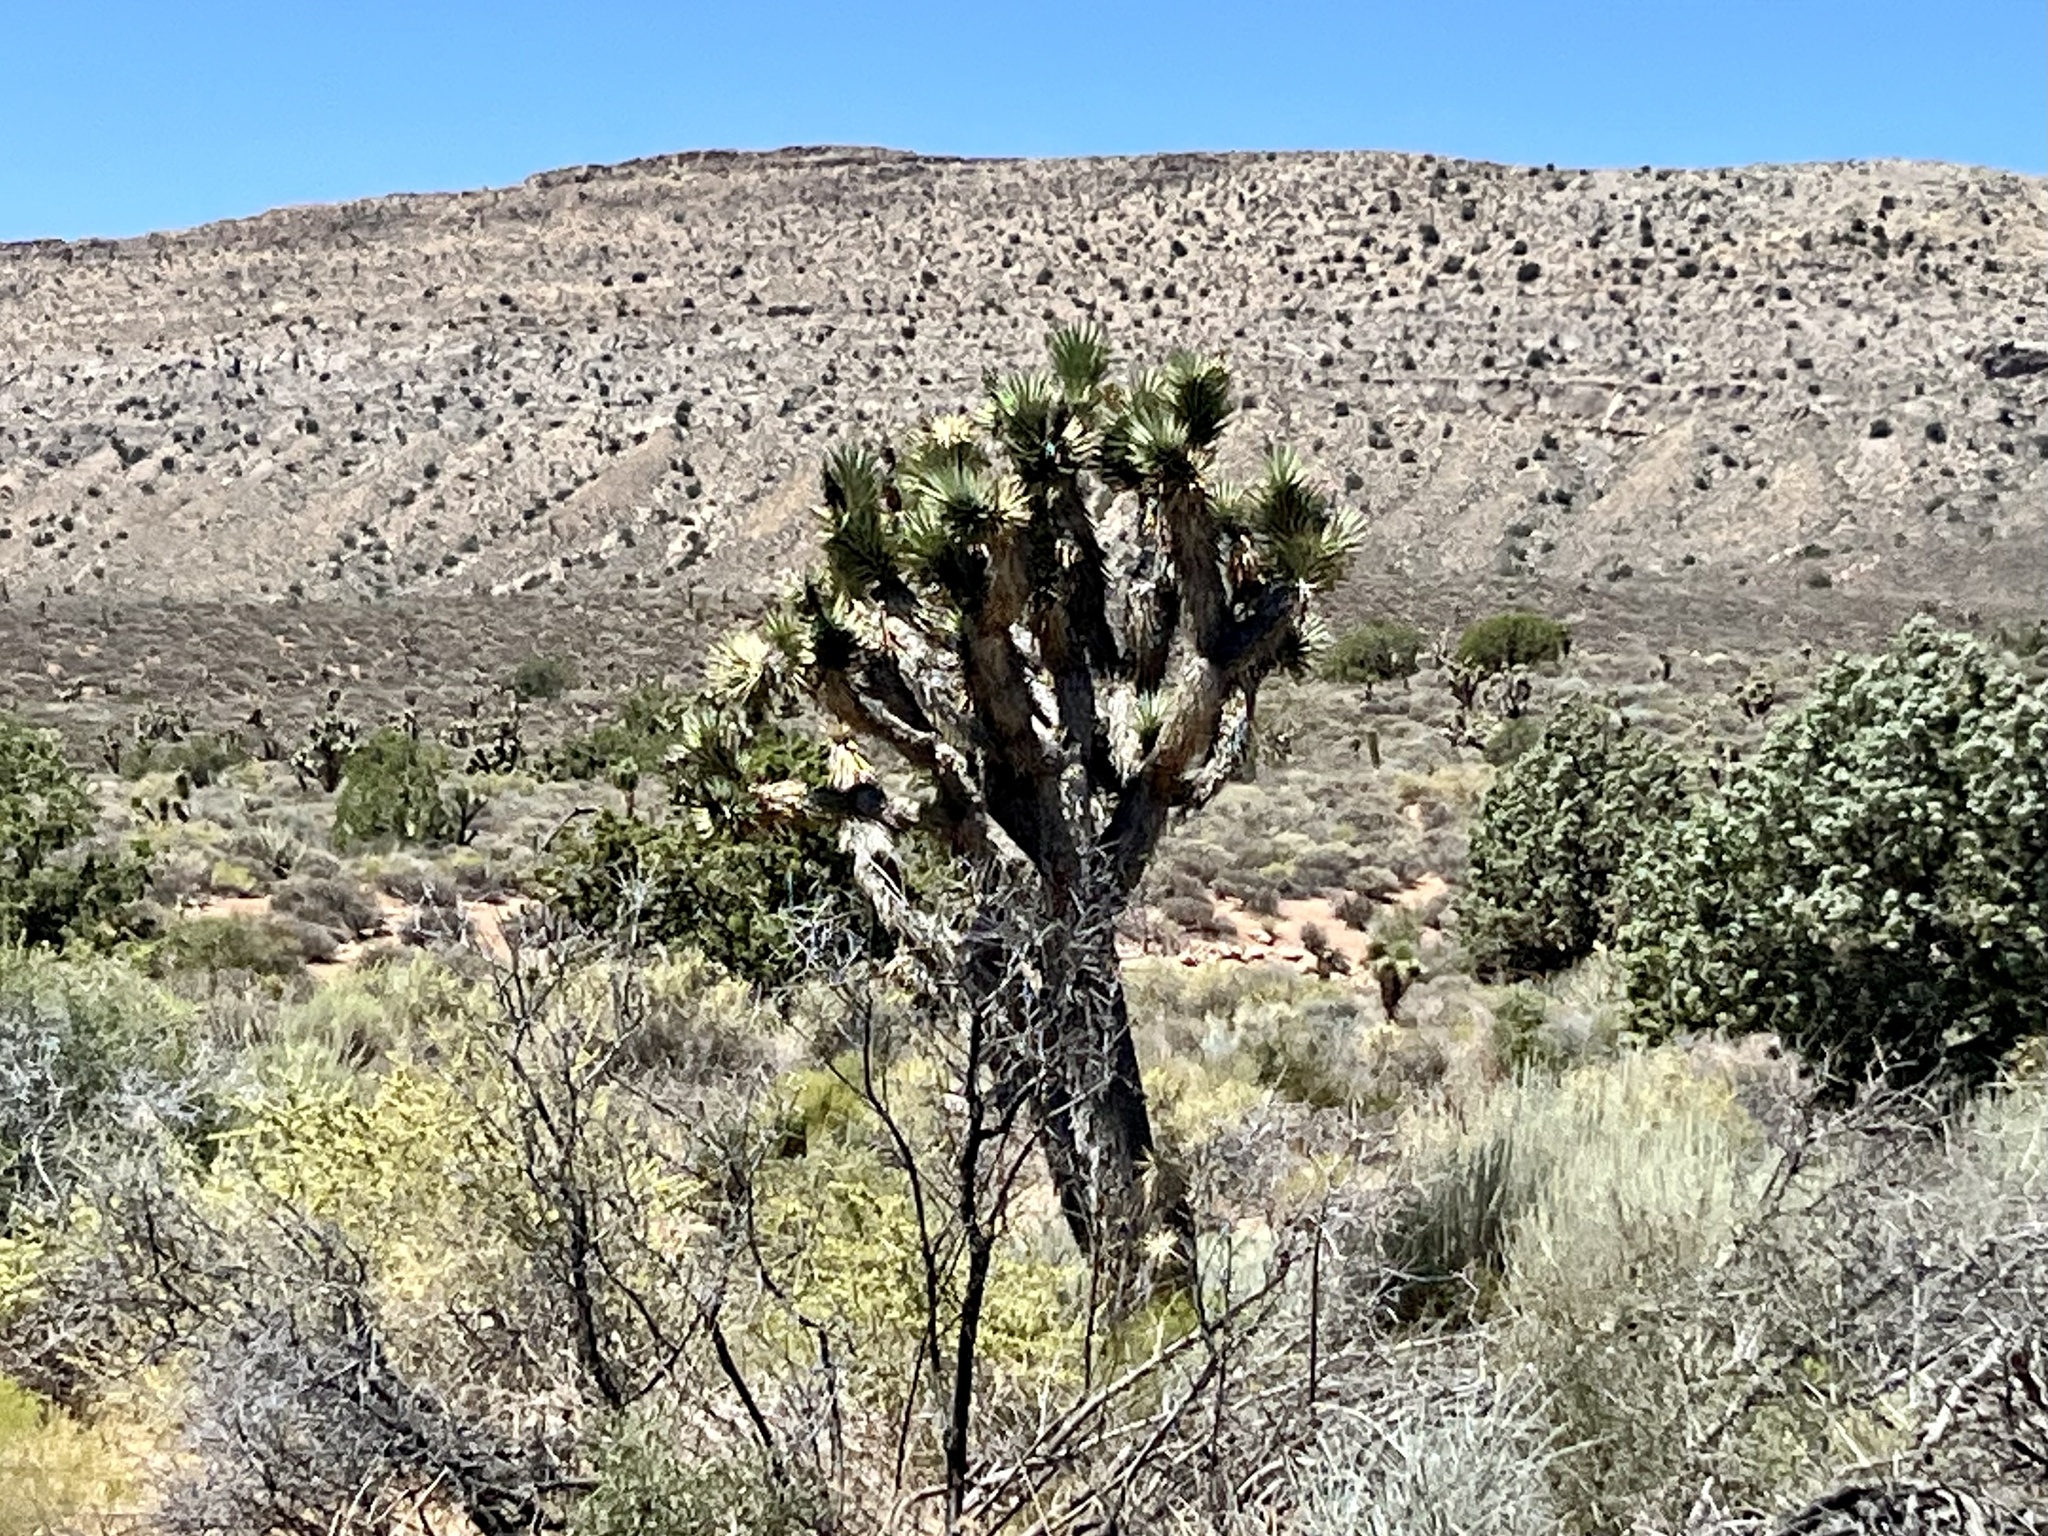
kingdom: Plantae
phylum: Tracheophyta
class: Liliopsida
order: Asparagales
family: Asparagaceae
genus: Yucca
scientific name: Yucca brevifolia
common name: Joshua tree
